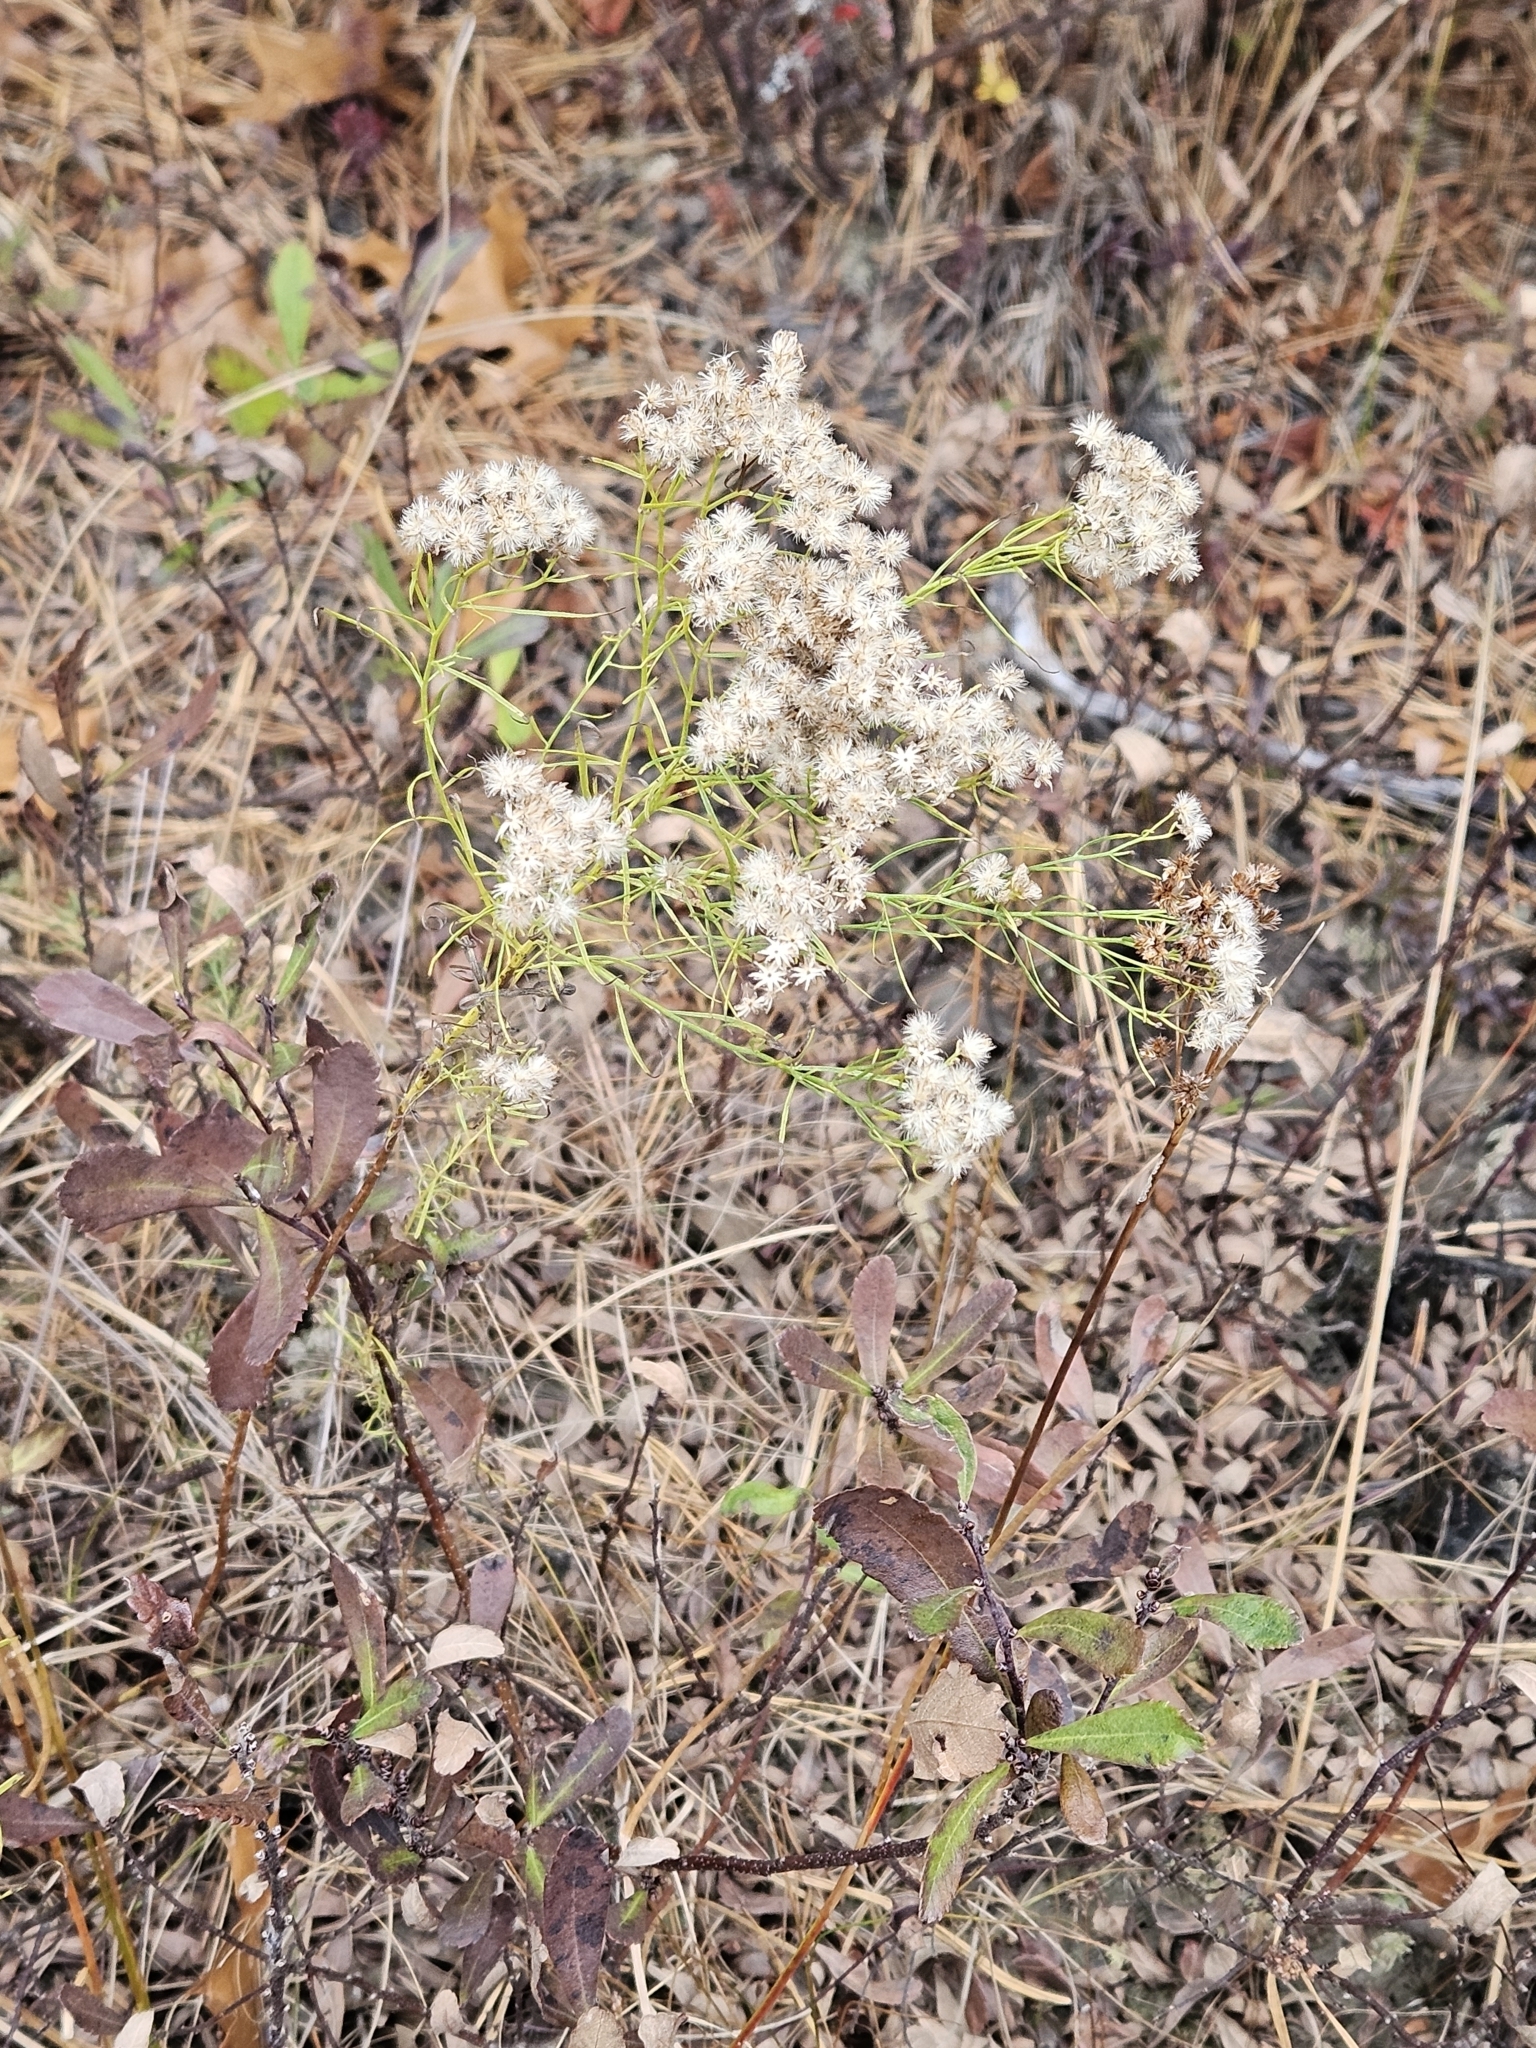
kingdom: Plantae
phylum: Tracheophyta
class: Magnoliopsida
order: Asterales
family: Asteraceae
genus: Euthamia
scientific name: Euthamia caroliniana
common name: Coastal plain goldentop
